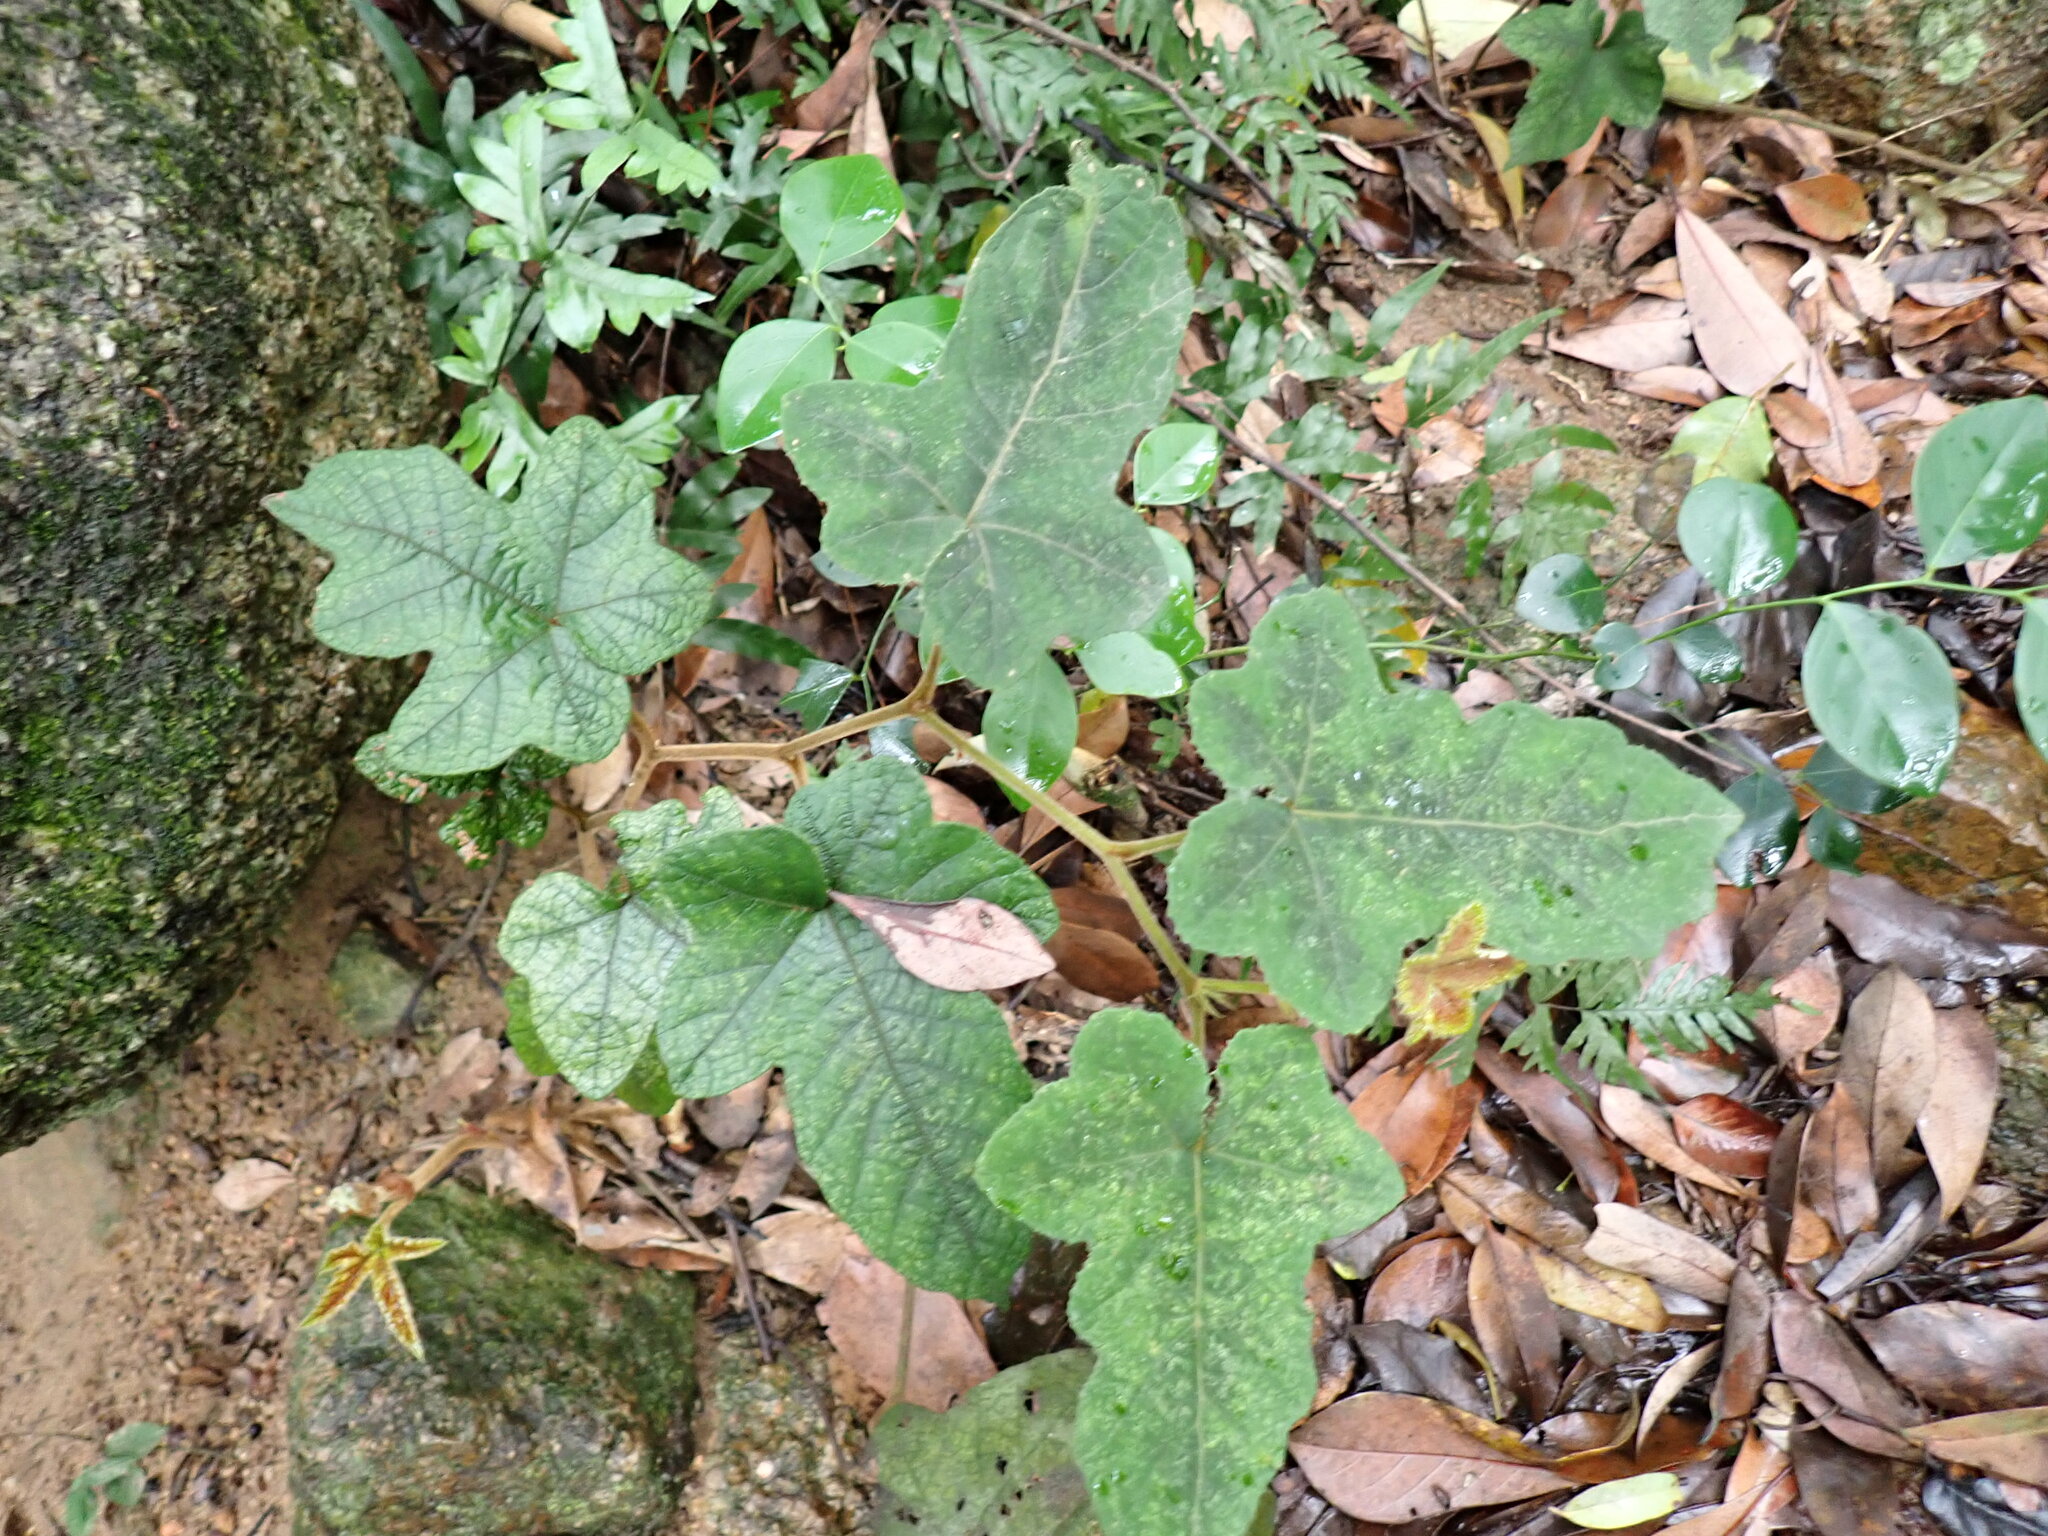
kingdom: Plantae
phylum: Tracheophyta
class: Magnoliopsida
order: Rosales
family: Rosaceae
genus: Rubus
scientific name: Rubus reflexus
